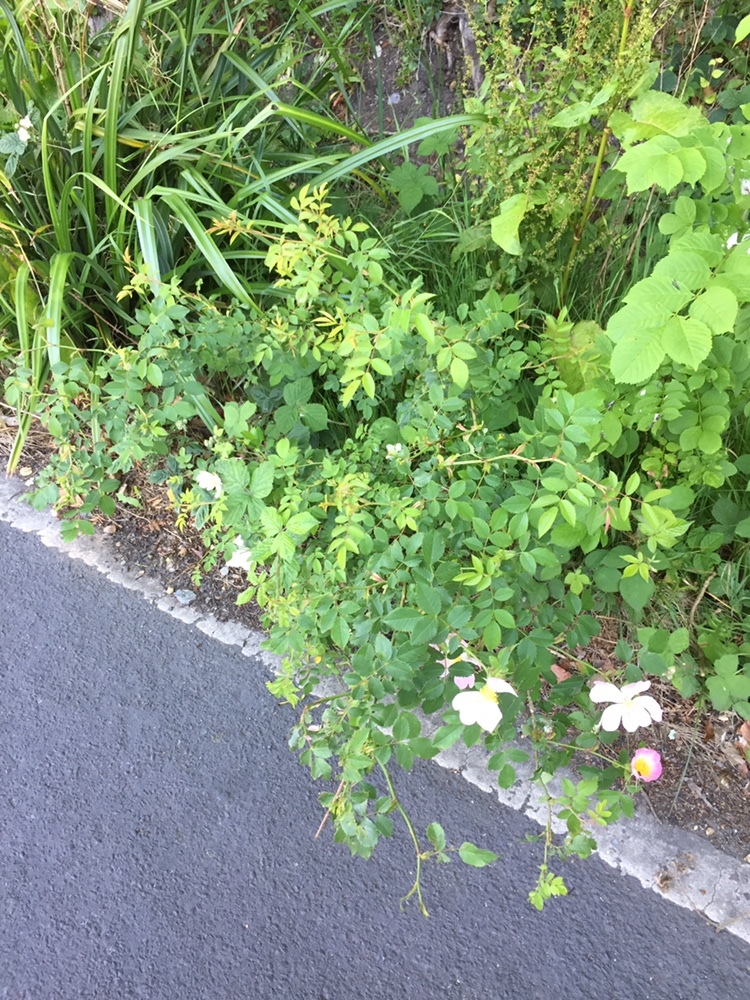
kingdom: Plantae
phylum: Tracheophyta
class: Magnoliopsida
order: Rosales
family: Rosaceae
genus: Rosa
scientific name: Rosa canina
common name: Dog rose
